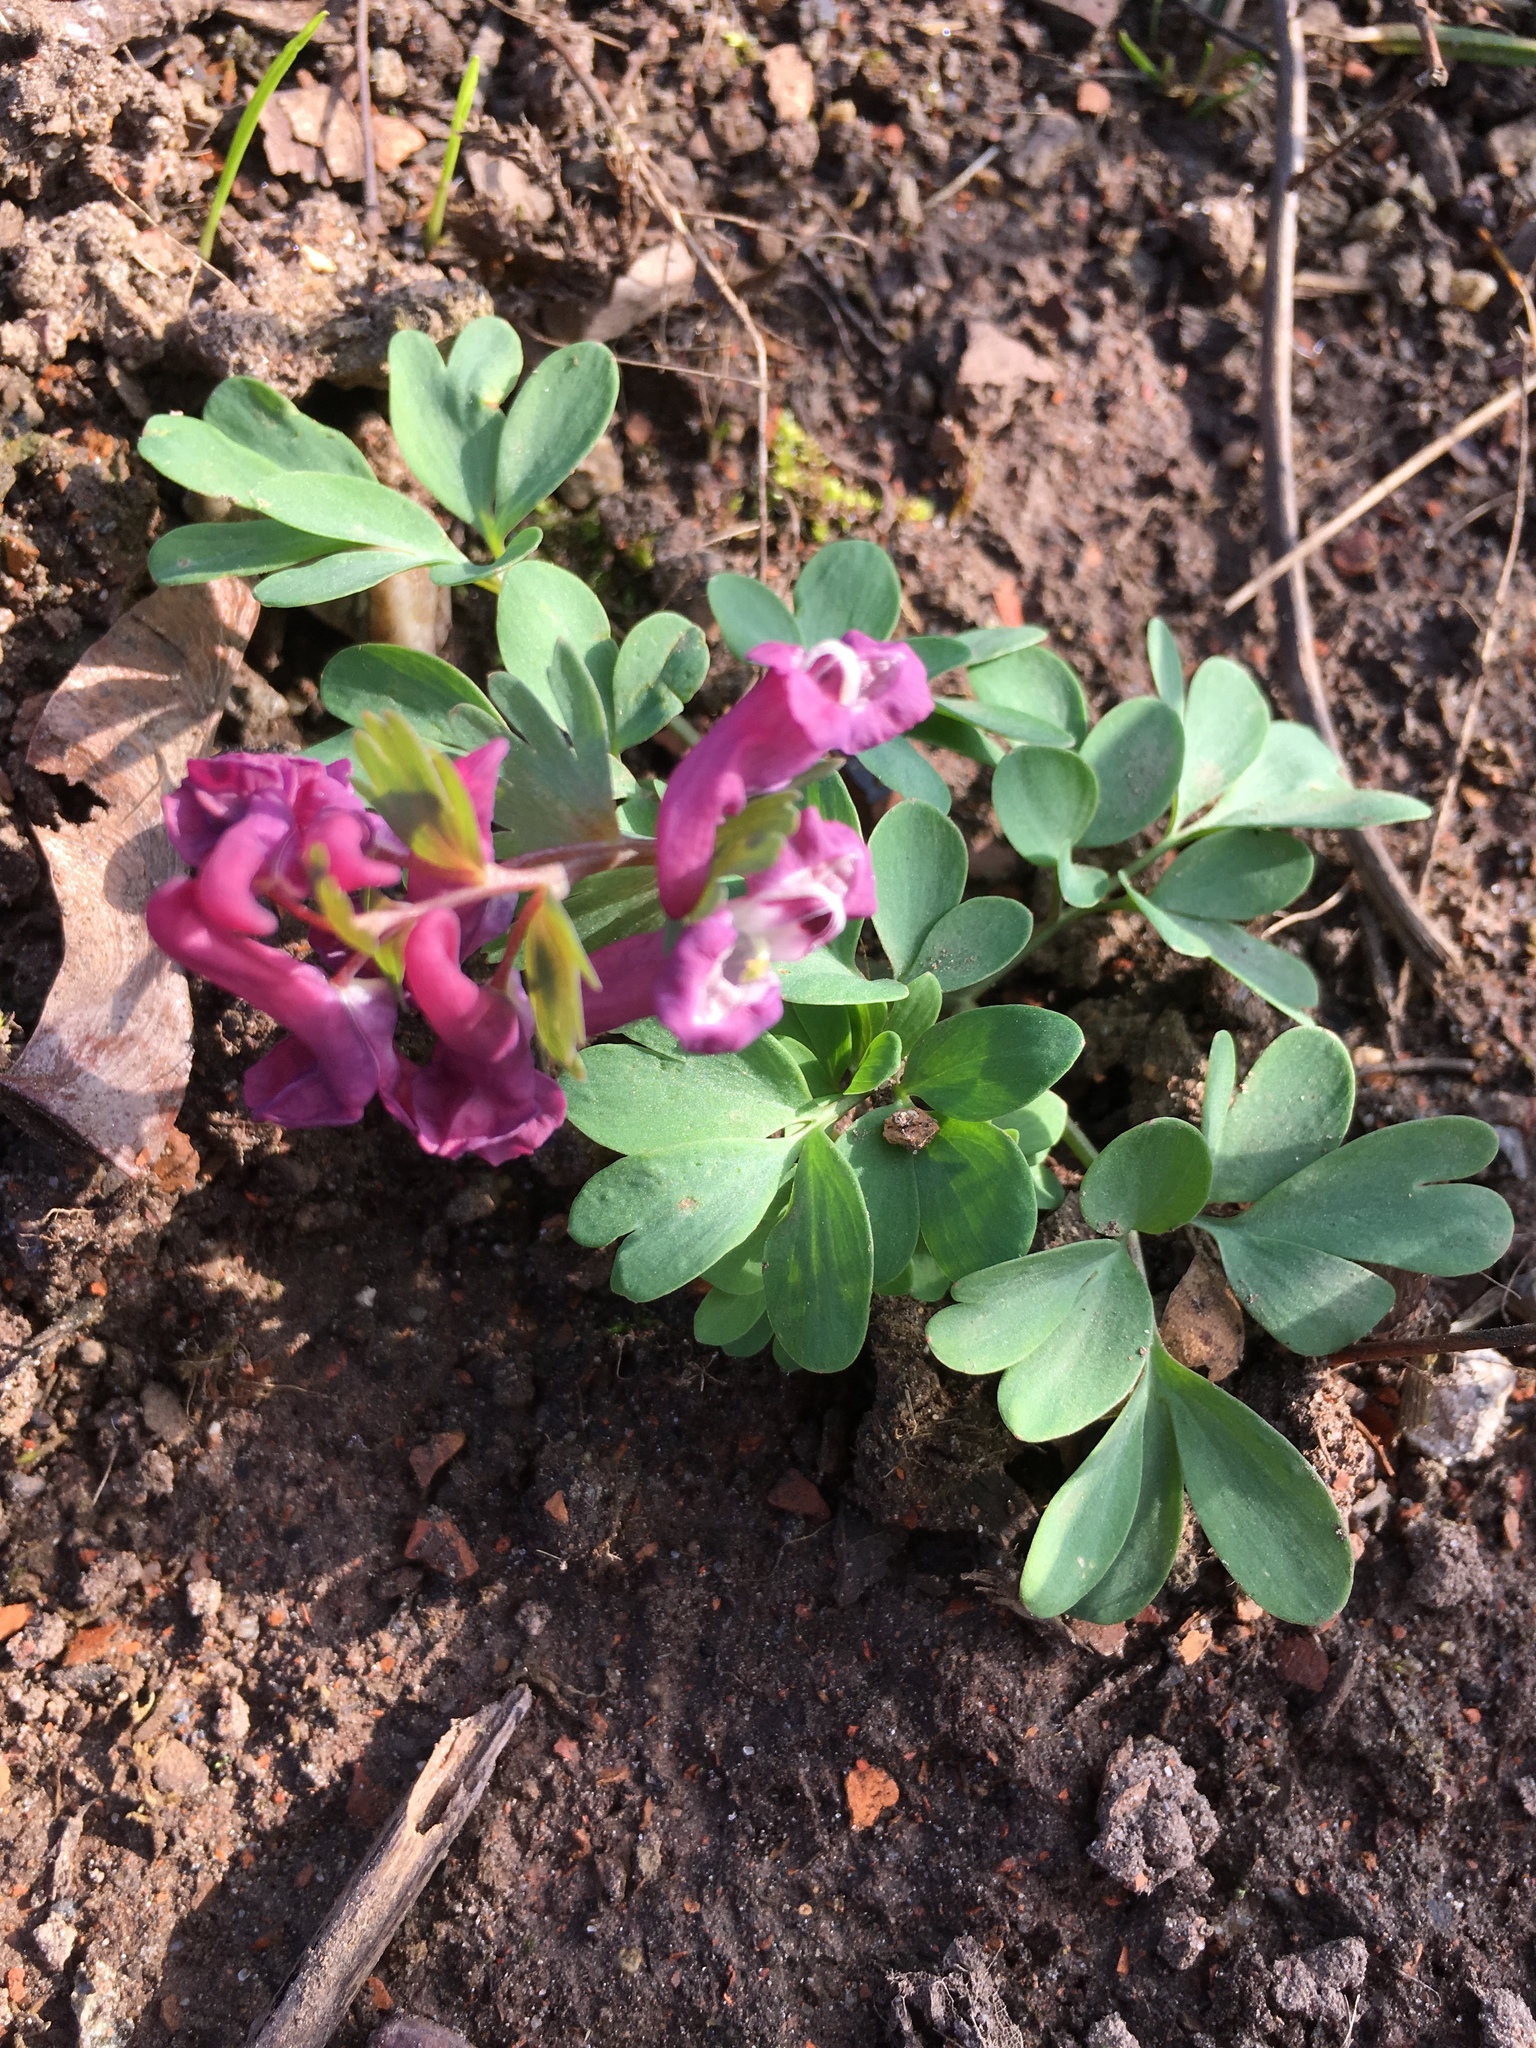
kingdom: Plantae
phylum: Tracheophyta
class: Magnoliopsida
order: Ranunculales
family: Papaveraceae
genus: Corydalis
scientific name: Corydalis solida
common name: Bird-in-a-bush
